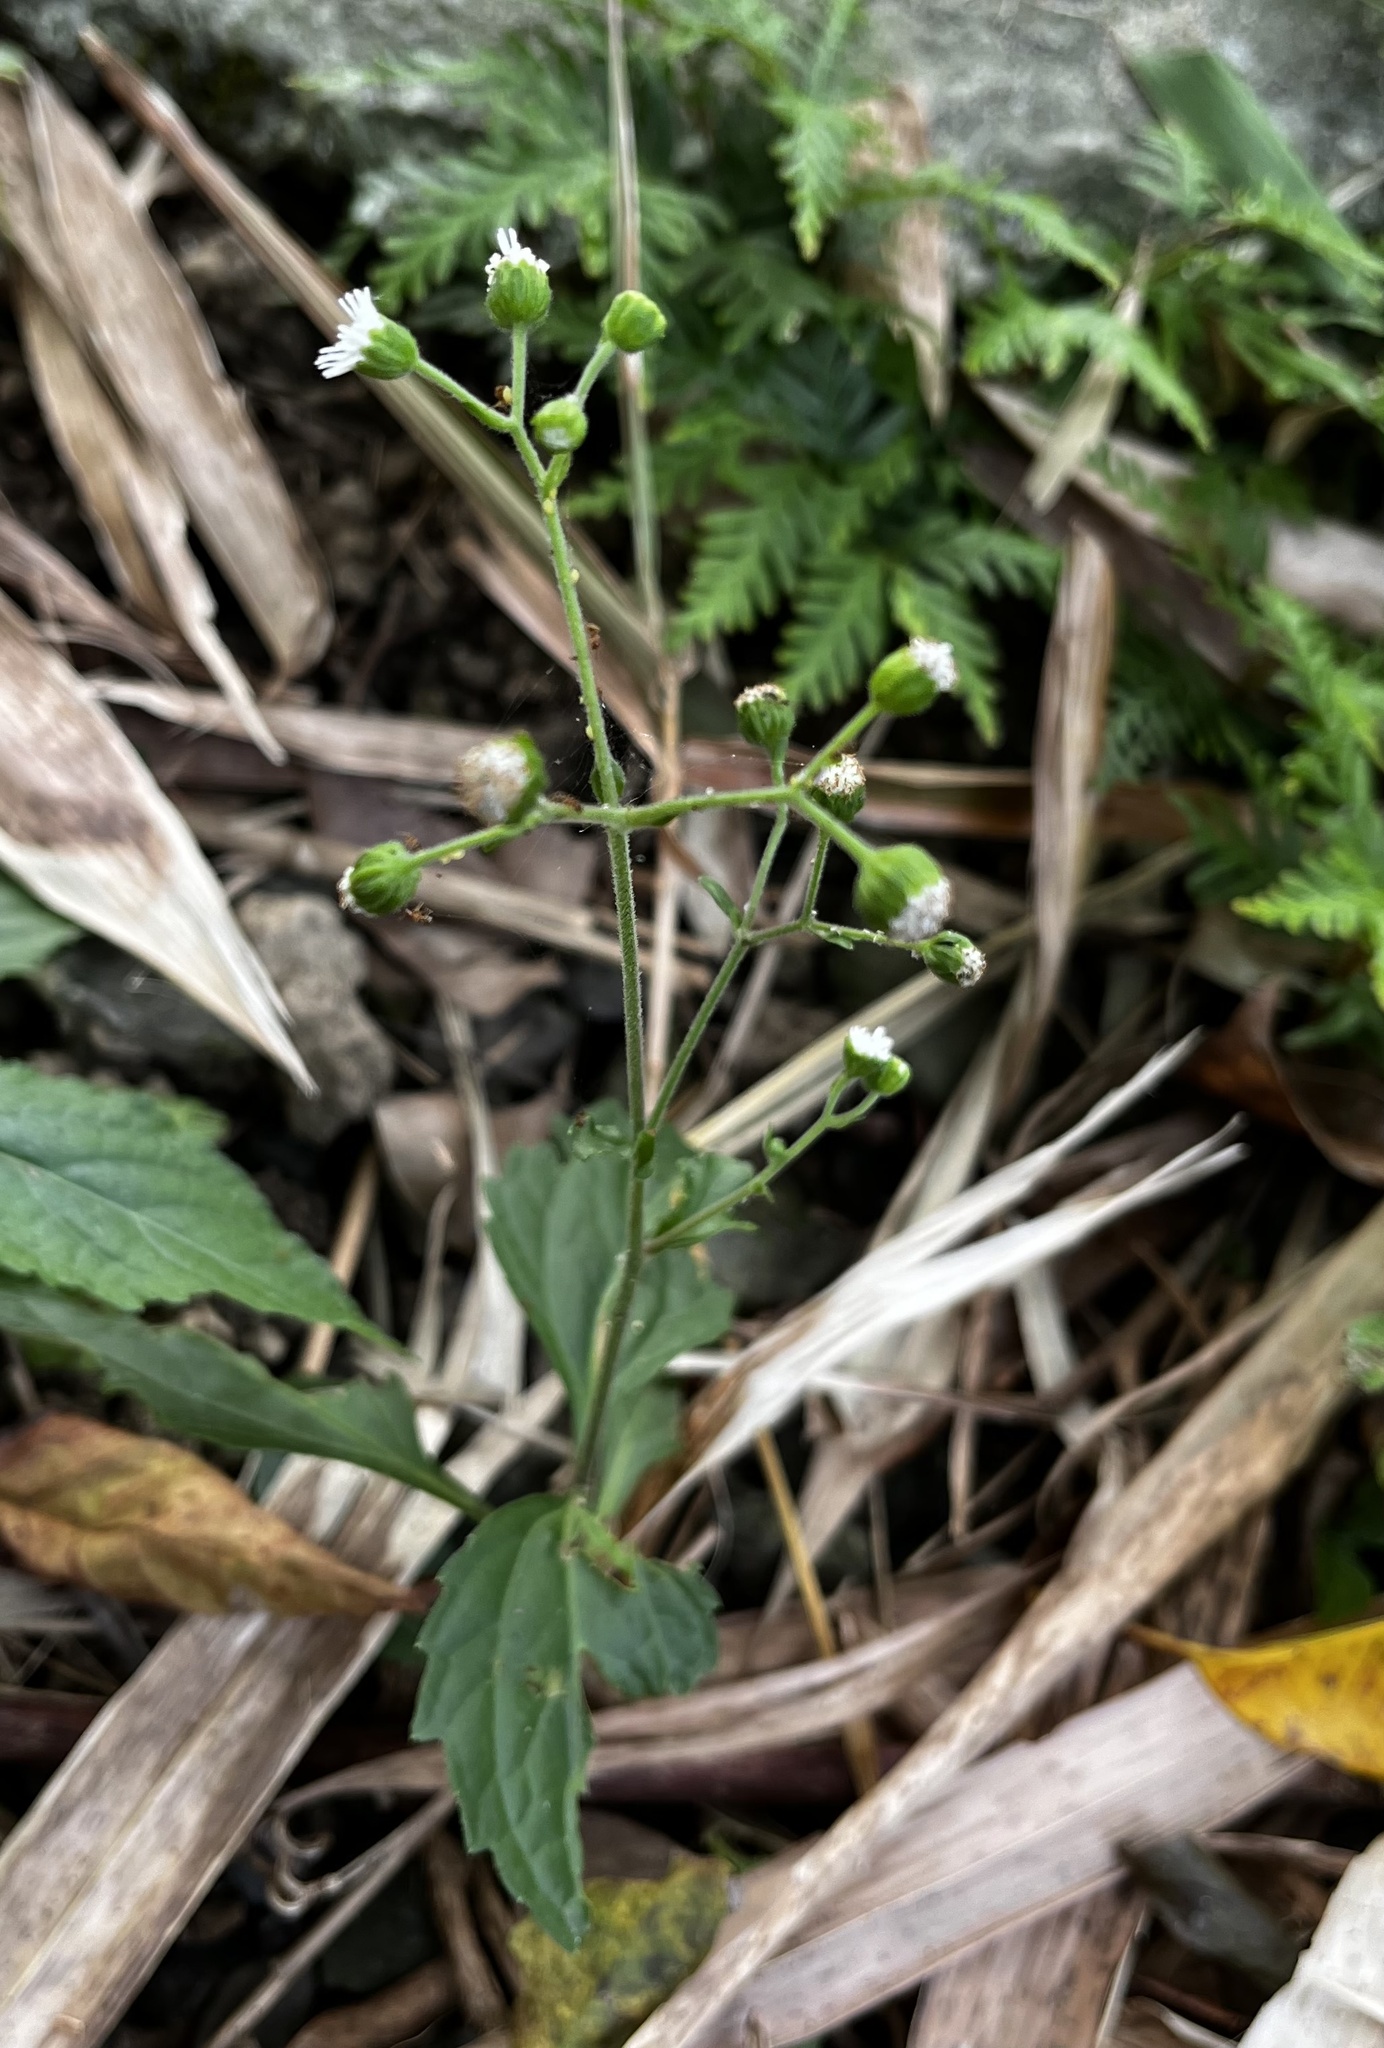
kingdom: Plantae
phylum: Tracheophyta
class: Magnoliopsida
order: Asterales
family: Asteraceae
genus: Adenostemma
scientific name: Adenostemma lavenia
